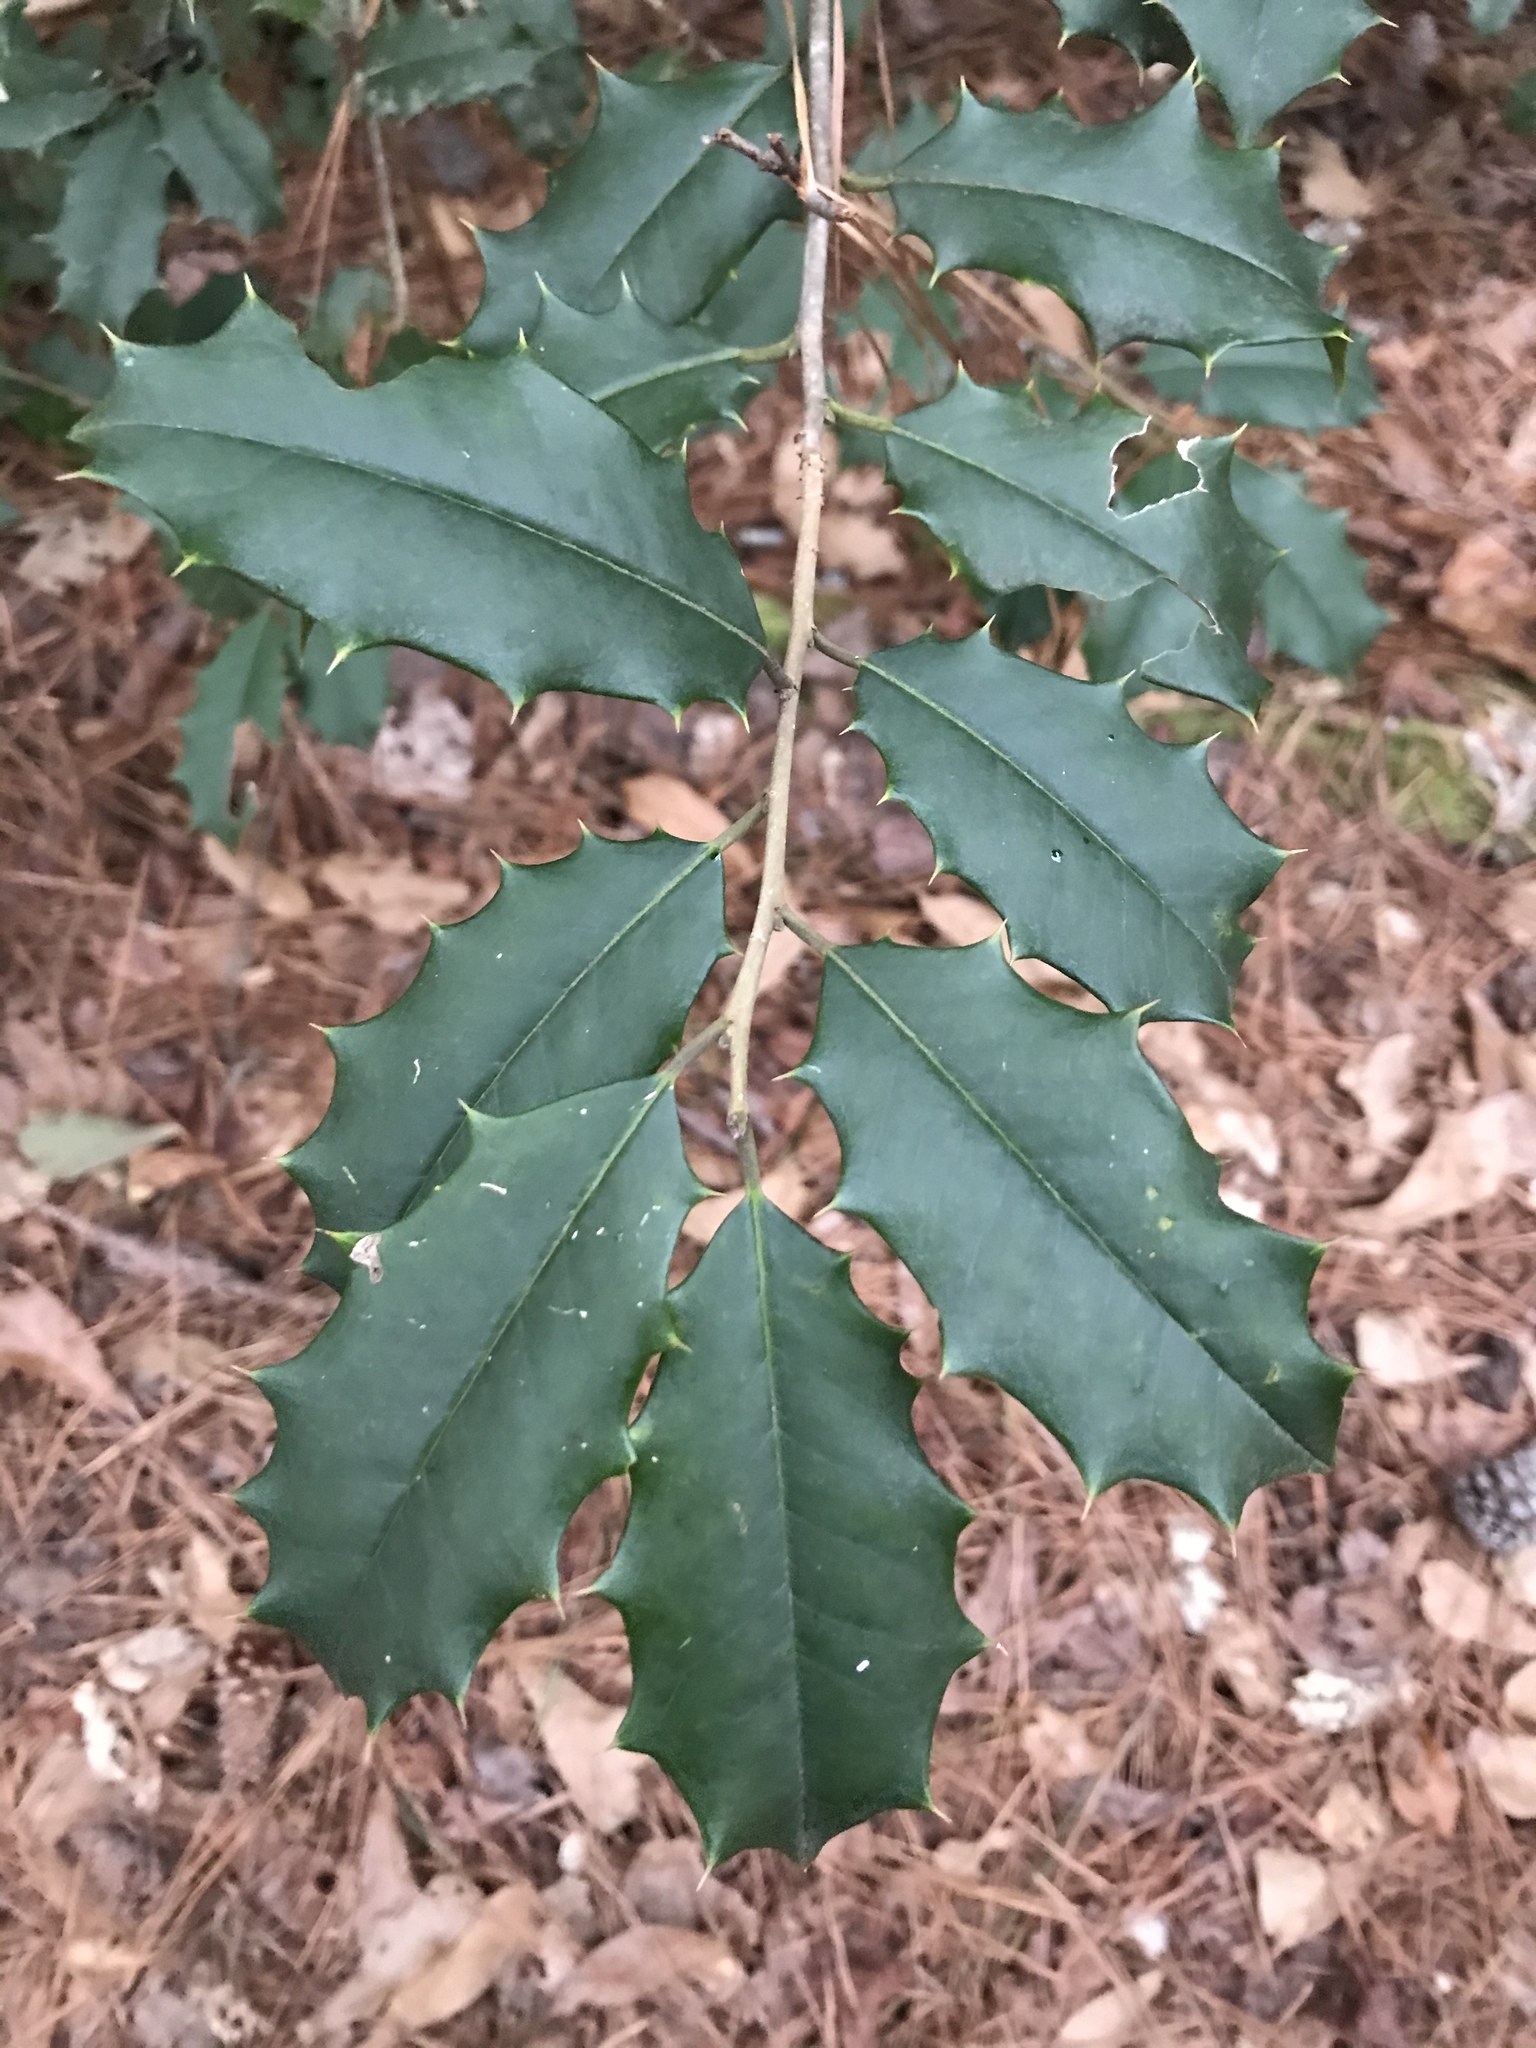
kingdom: Plantae
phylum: Tracheophyta
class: Magnoliopsida
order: Aquifoliales
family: Aquifoliaceae
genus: Ilex
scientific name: Ilex opaca
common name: American holly
